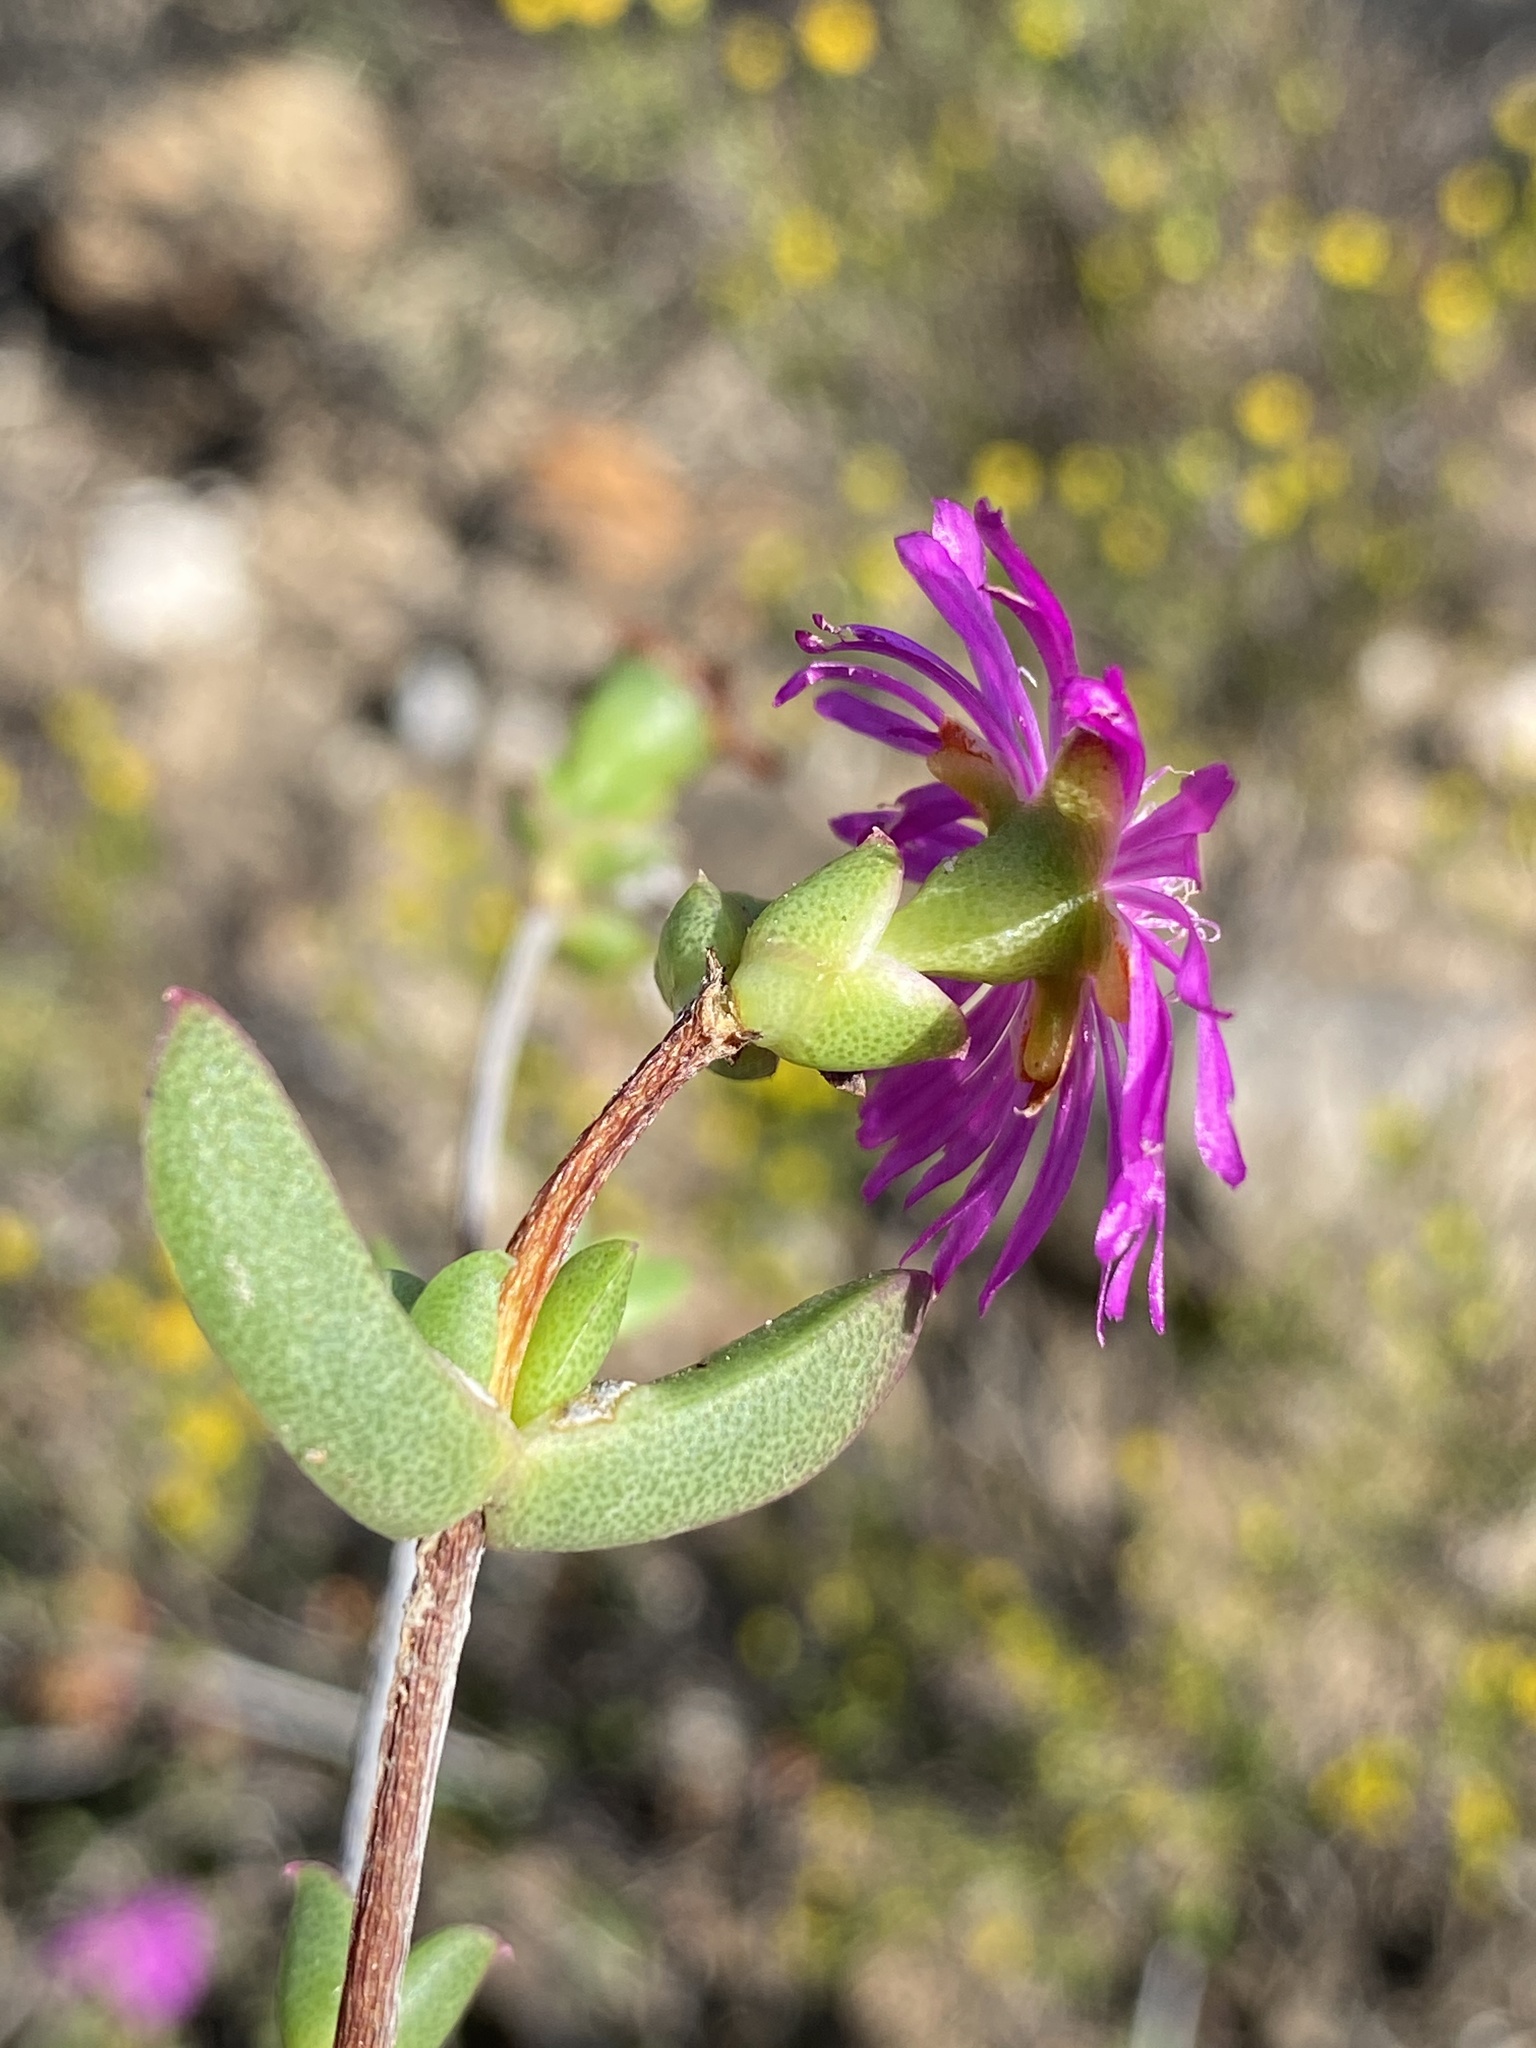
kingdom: Plantae
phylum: Tracheophyta
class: Magnoliopsida
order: Caryophyllales
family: Aizoaceae
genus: Ruschia
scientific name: Ruschia fourcadei
